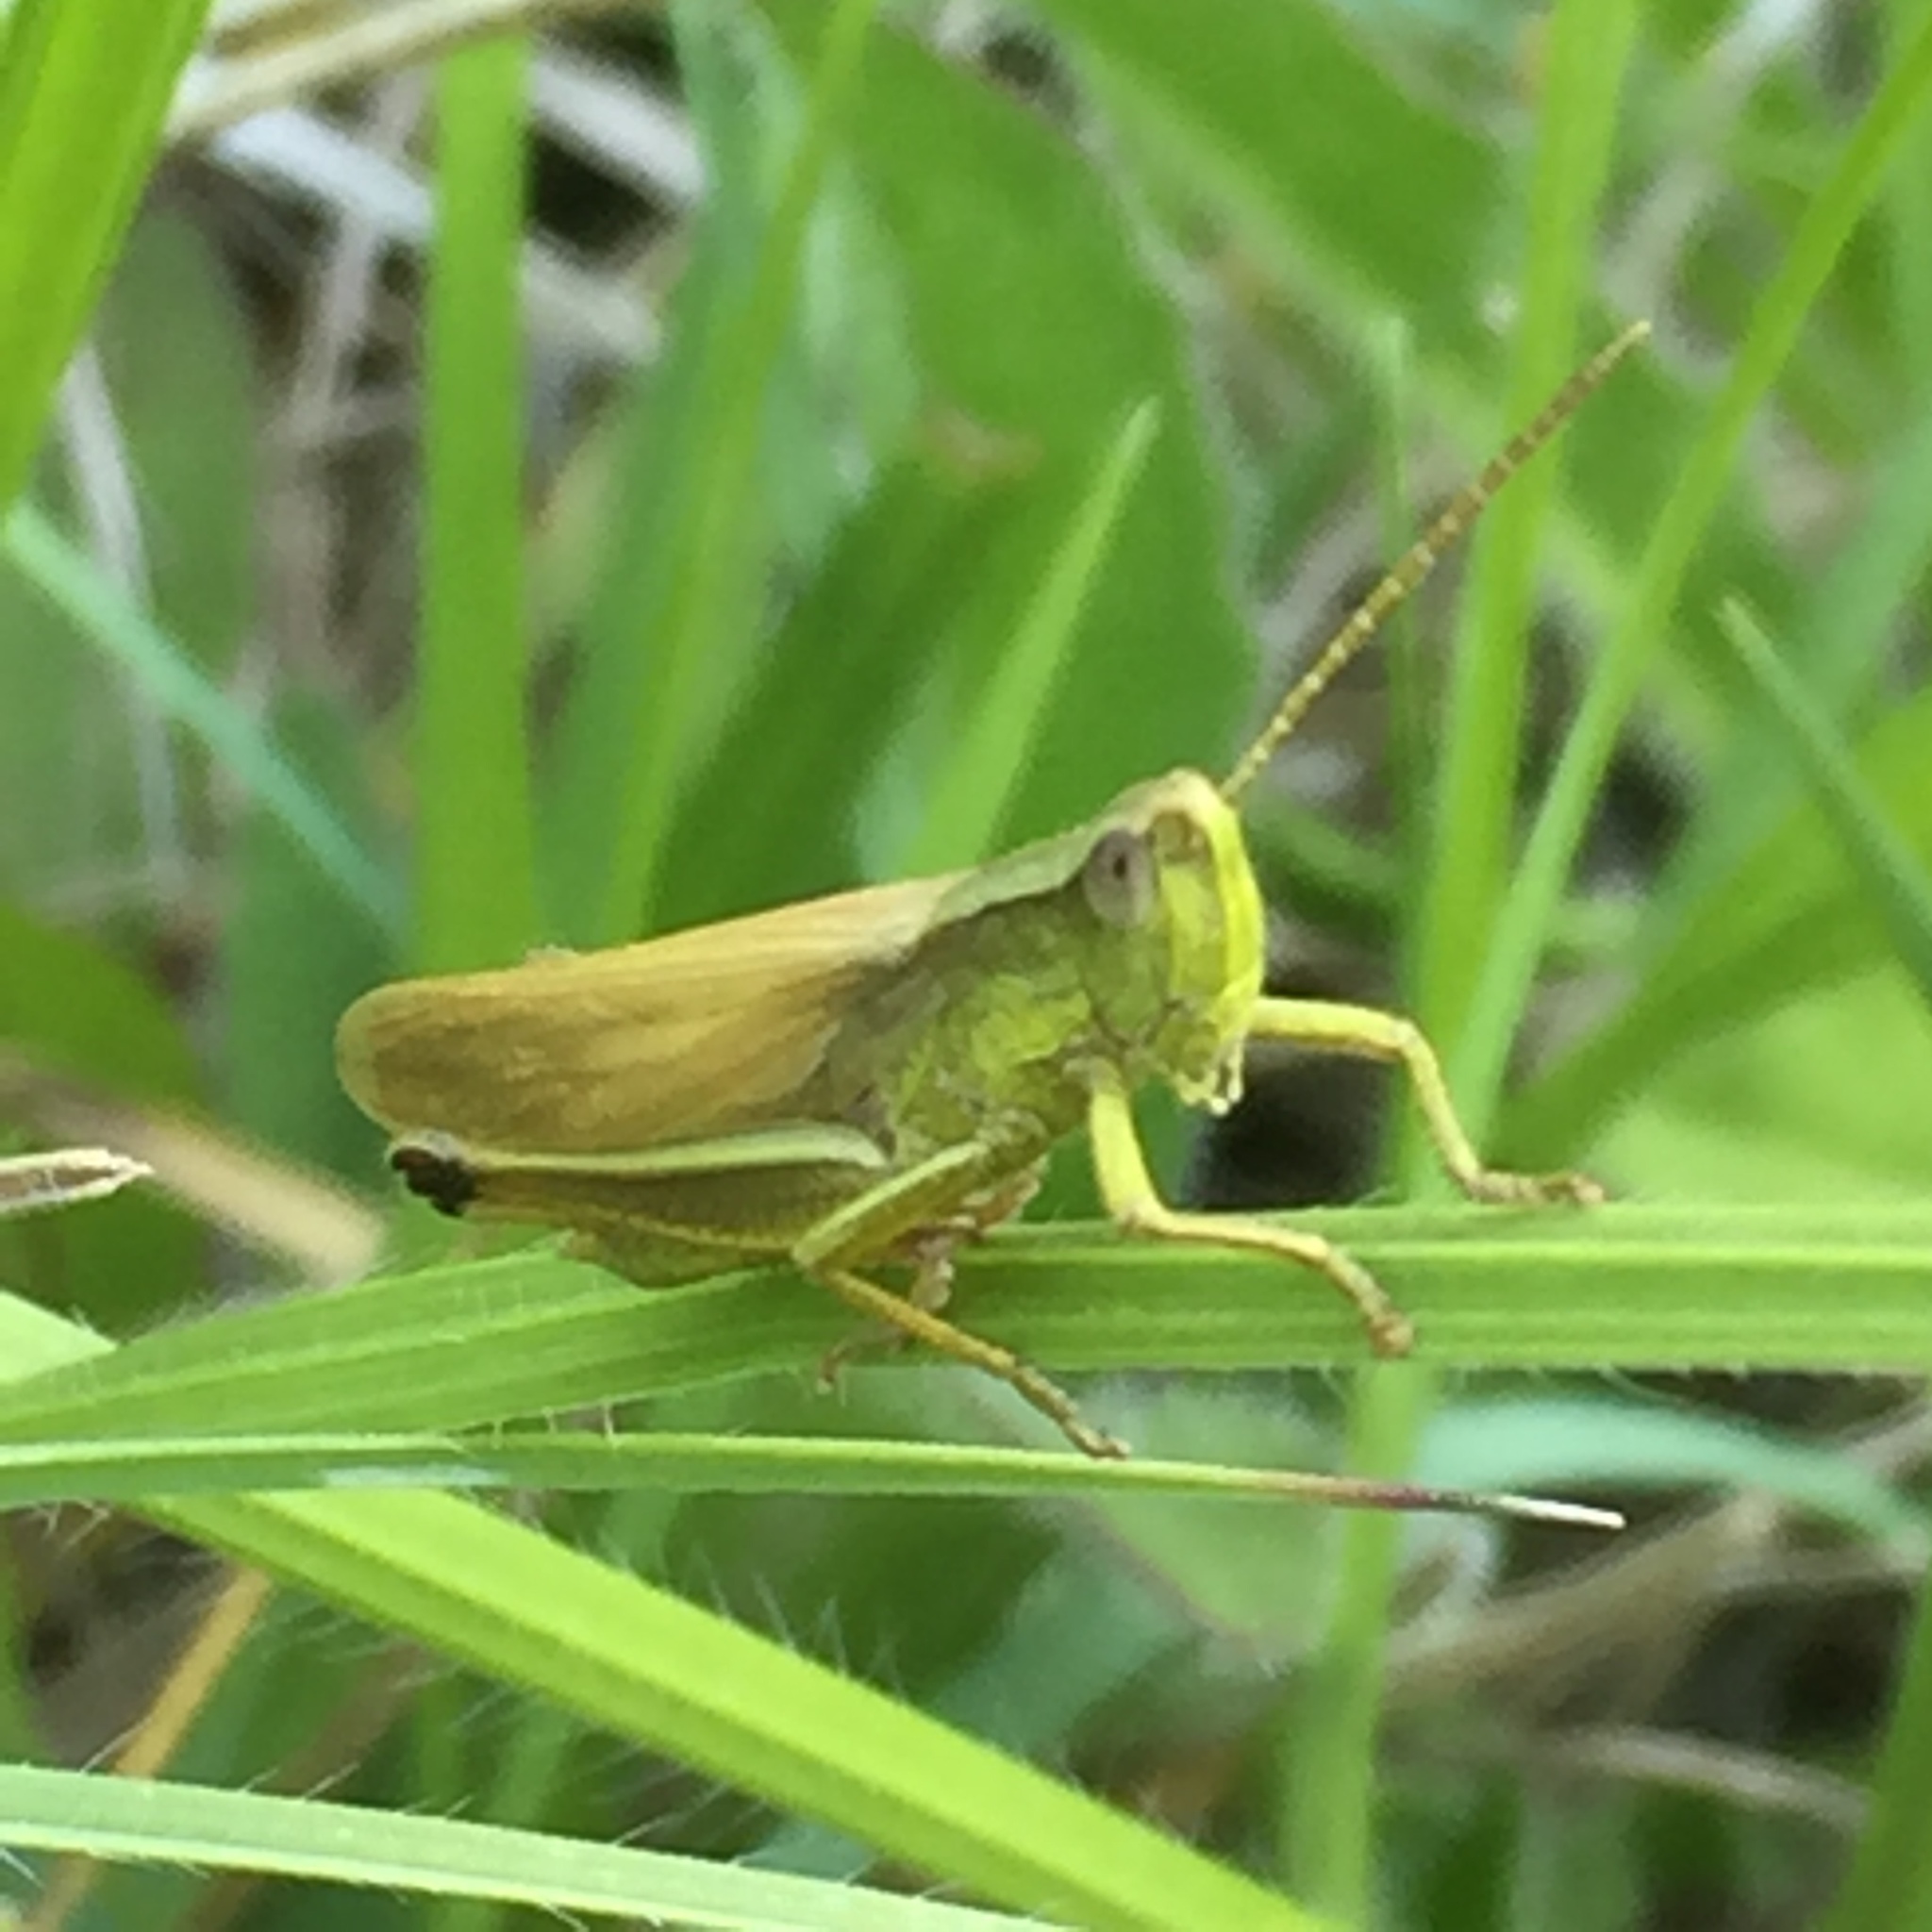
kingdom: Animalia
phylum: Arthropoda
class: Insecta
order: Orthoptera
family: Acrididae
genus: Chrysochraon
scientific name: Chrysochraon dispar
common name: Large gold grasshopper
